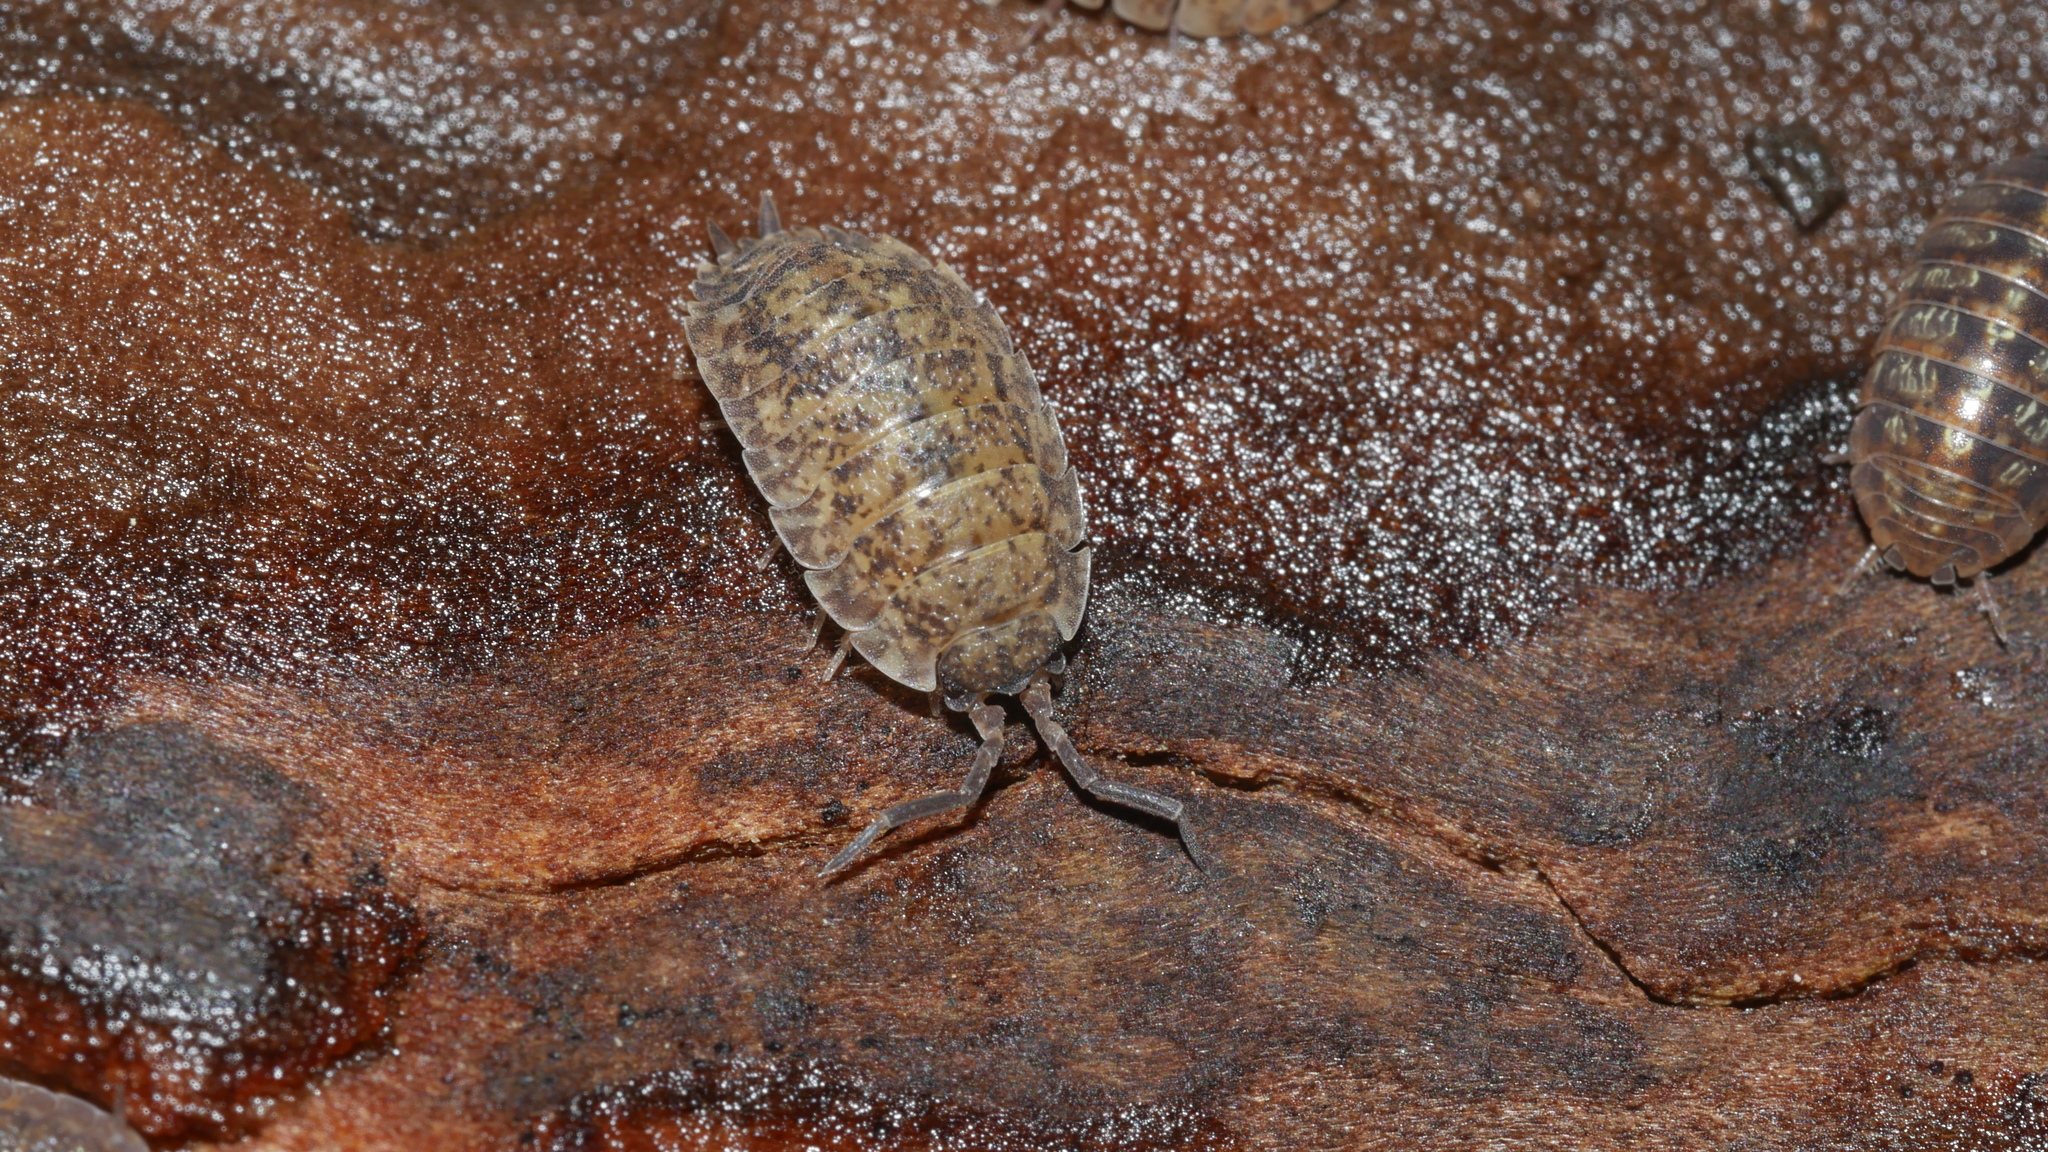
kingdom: Animalia
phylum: Arthropoda
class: Malacostraca
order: Isopoda
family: Porcellionidae
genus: Porcellio
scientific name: Porcellio scaber
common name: Common rough woodlouse
